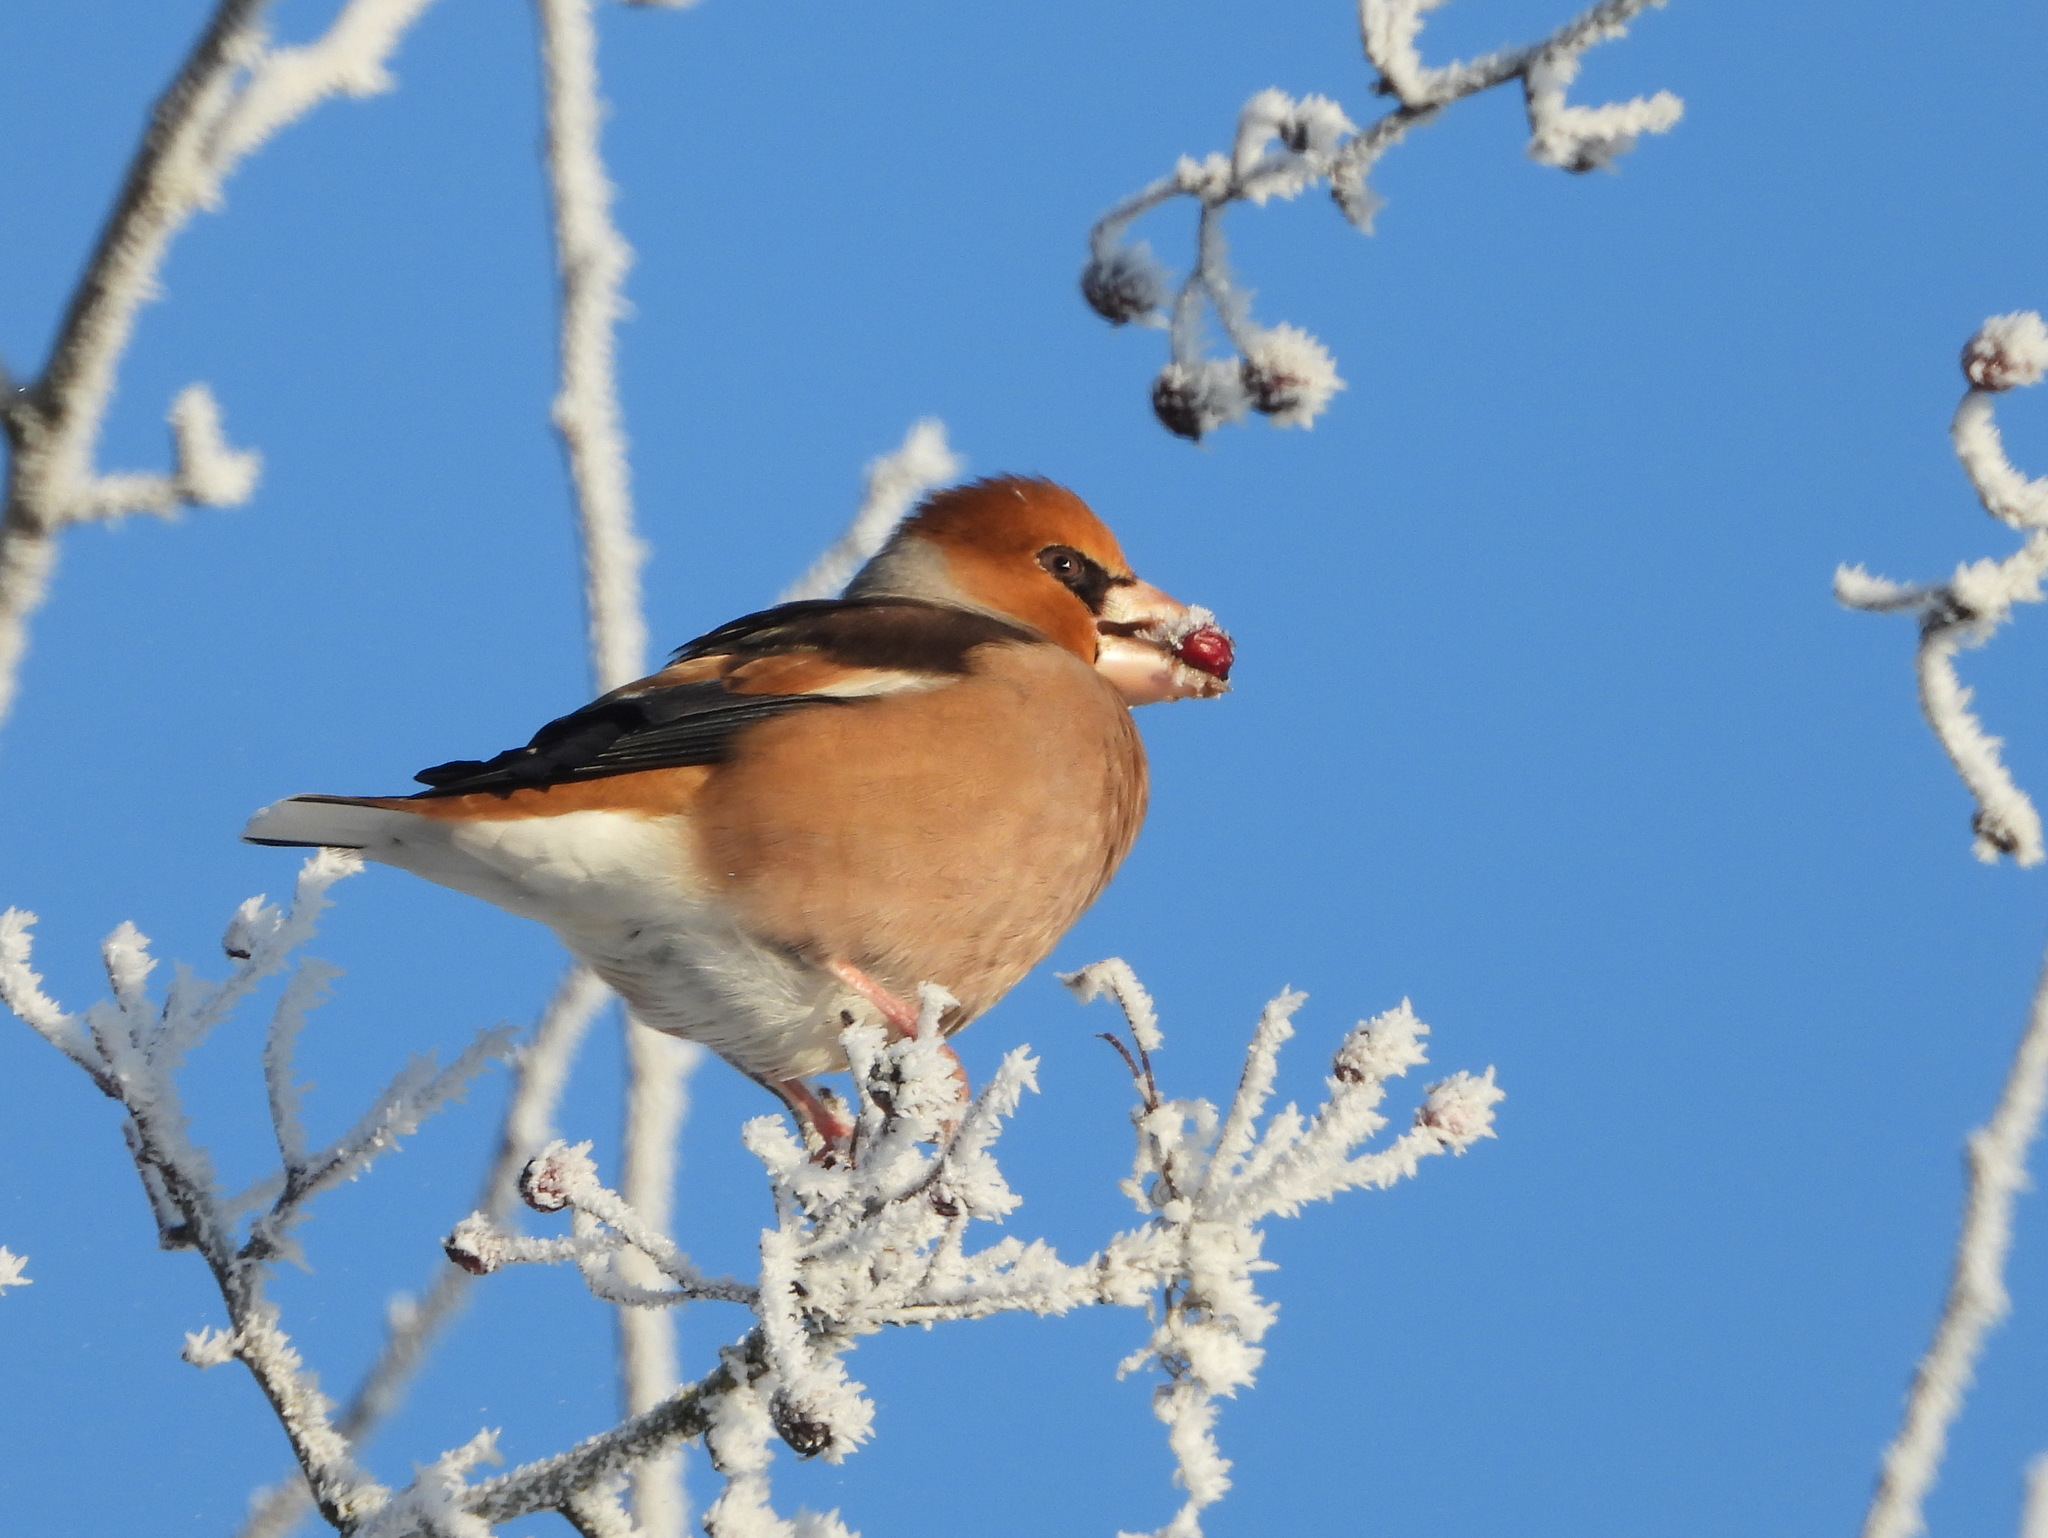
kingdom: Animalia
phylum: Chordata
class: Aves
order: Passeriformes
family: Fringillidae
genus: Coccothraustes
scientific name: Coccothraustes coccothraustes
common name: Hawfinch
